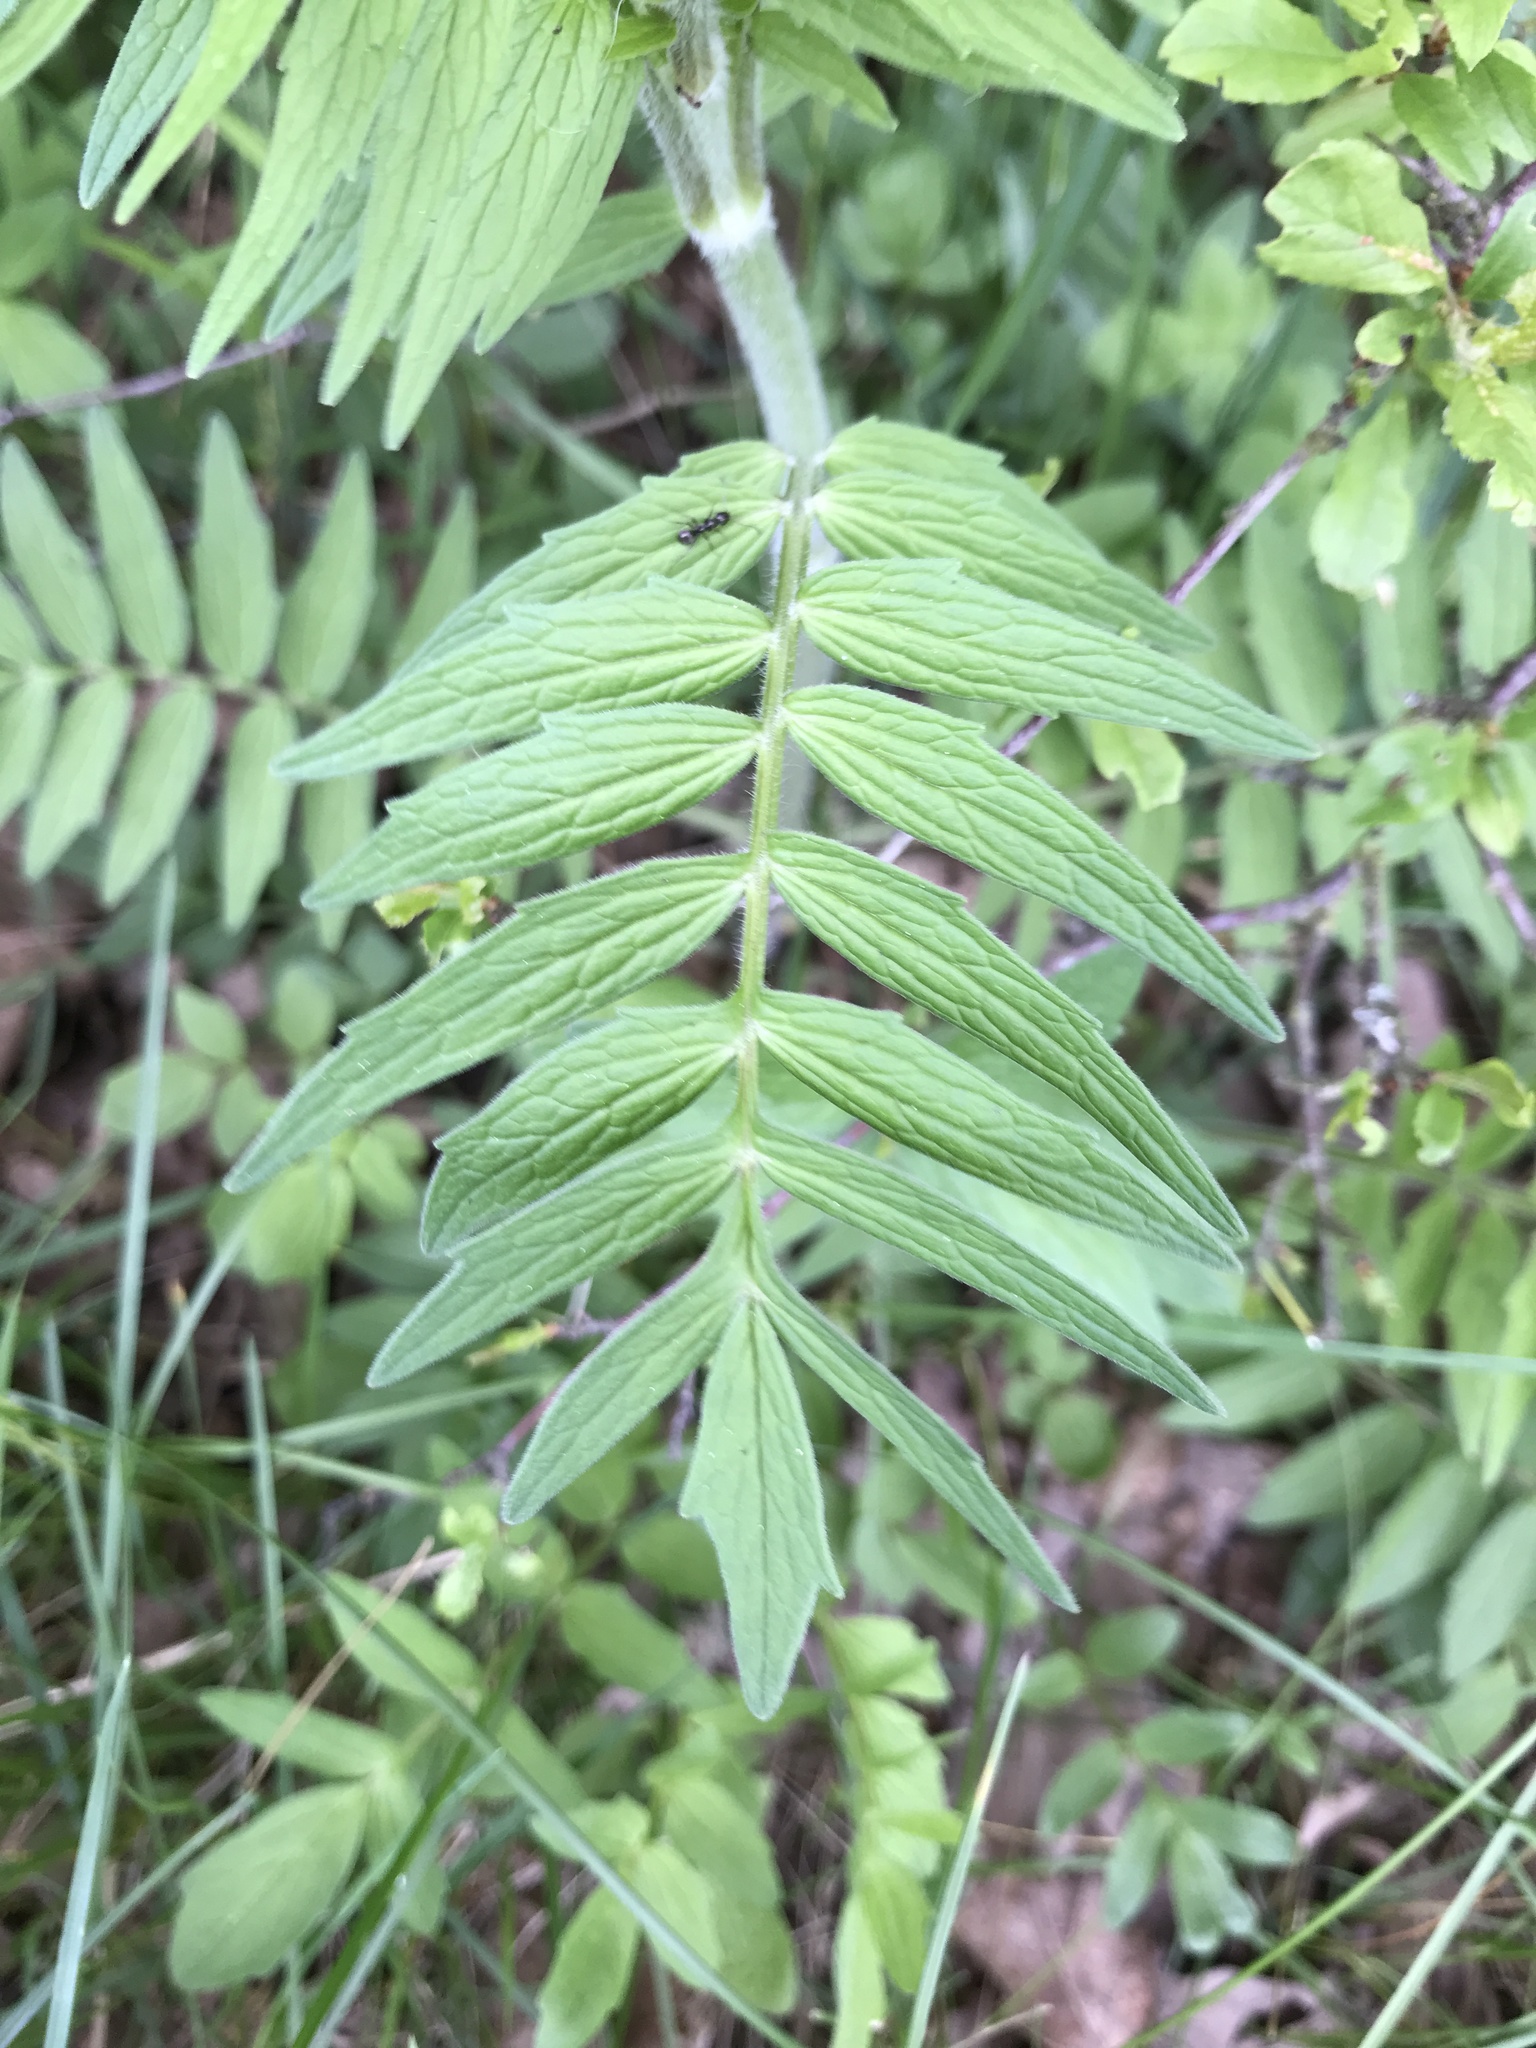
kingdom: Plantae
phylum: Tracheophyta
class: Magnoliopsida
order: Dipsacales
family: Caprifoliaceae
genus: Valeriana
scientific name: Valeriana officinalis
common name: Common valerian
